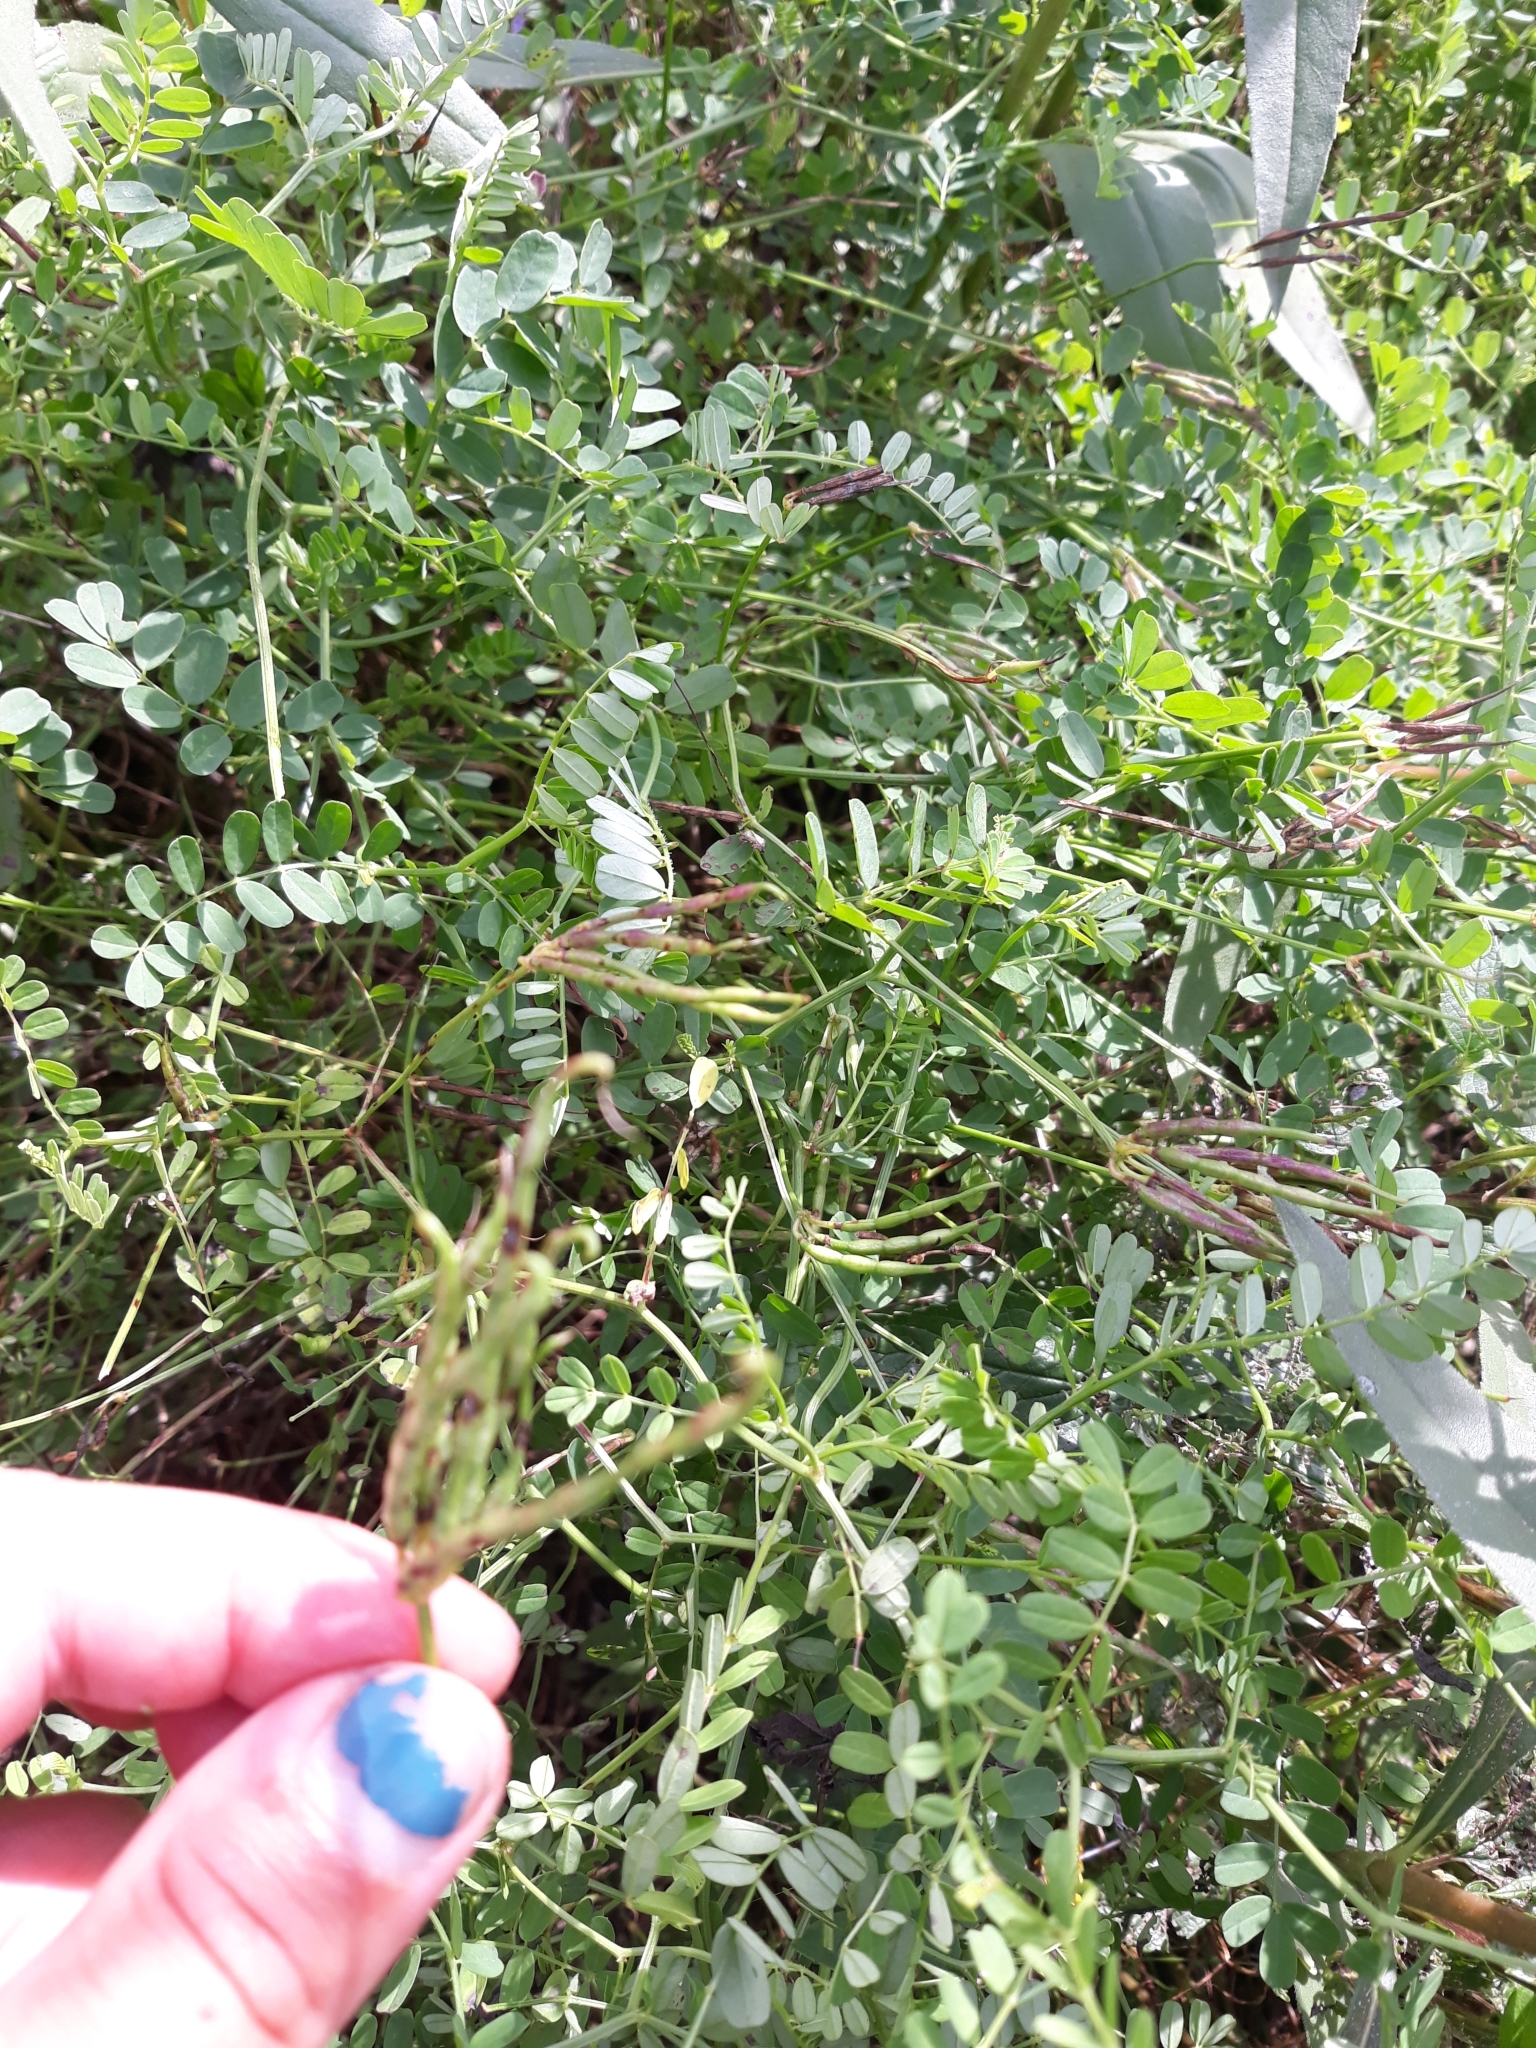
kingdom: Plantae
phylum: Tracheophyta
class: Magnoliopsida
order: Fabales
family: Fabaceae
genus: Coronilla
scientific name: Coronilla varia
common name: Crownvetch
